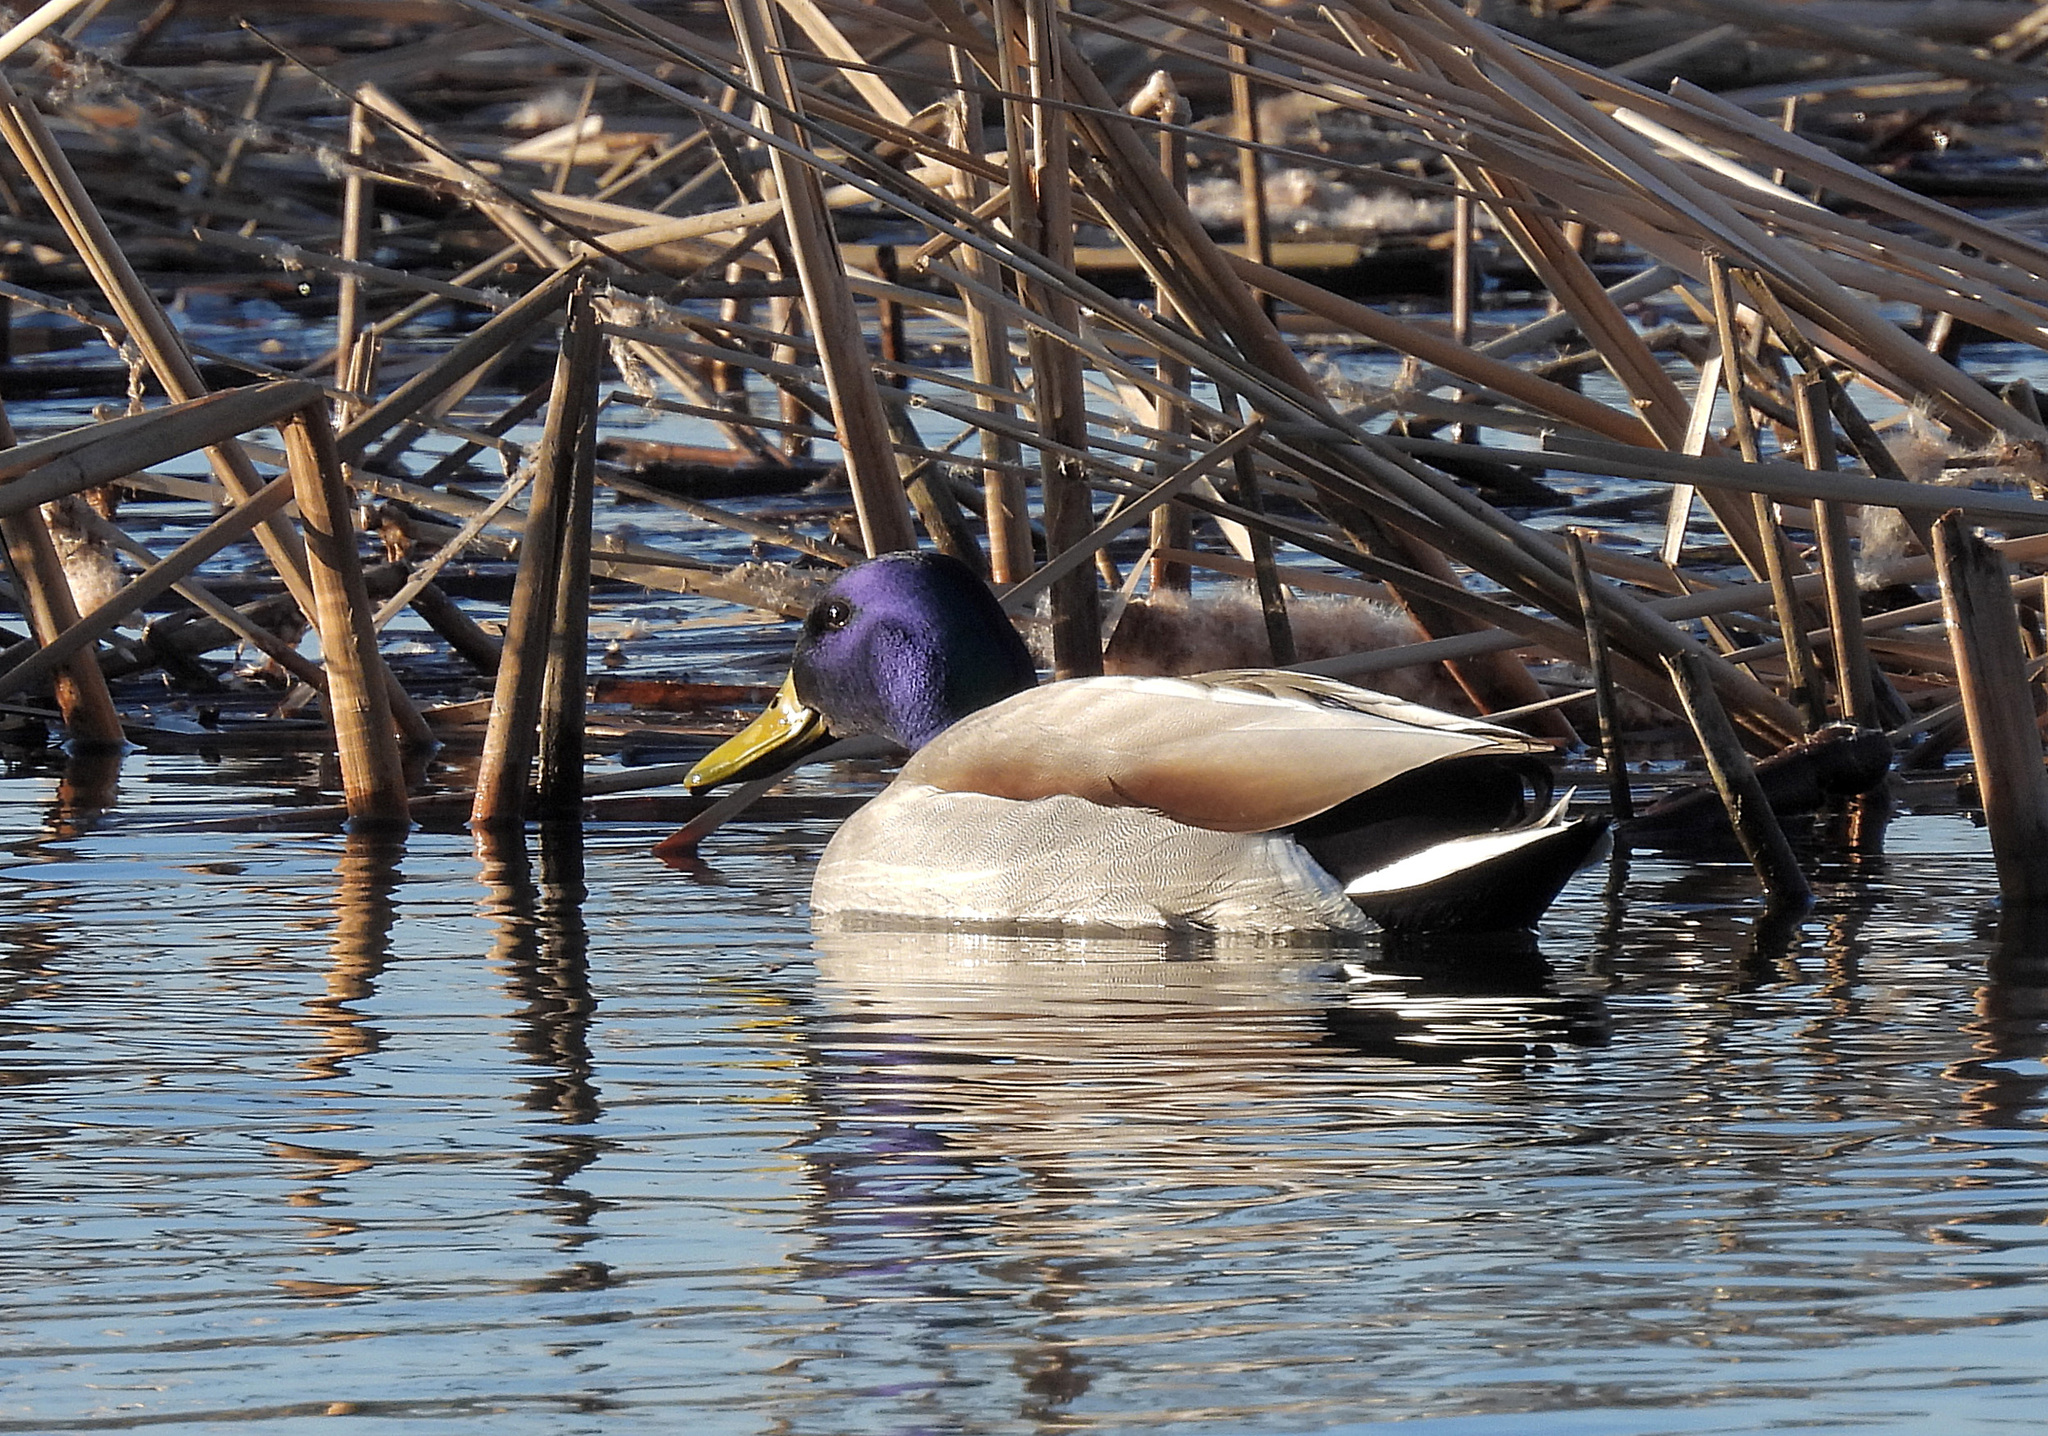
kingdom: Animalia
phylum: Chordata
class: Aves
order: Anseriformes
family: Anatidae
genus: Anas
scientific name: Anas platyrhynchos
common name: Mallard
